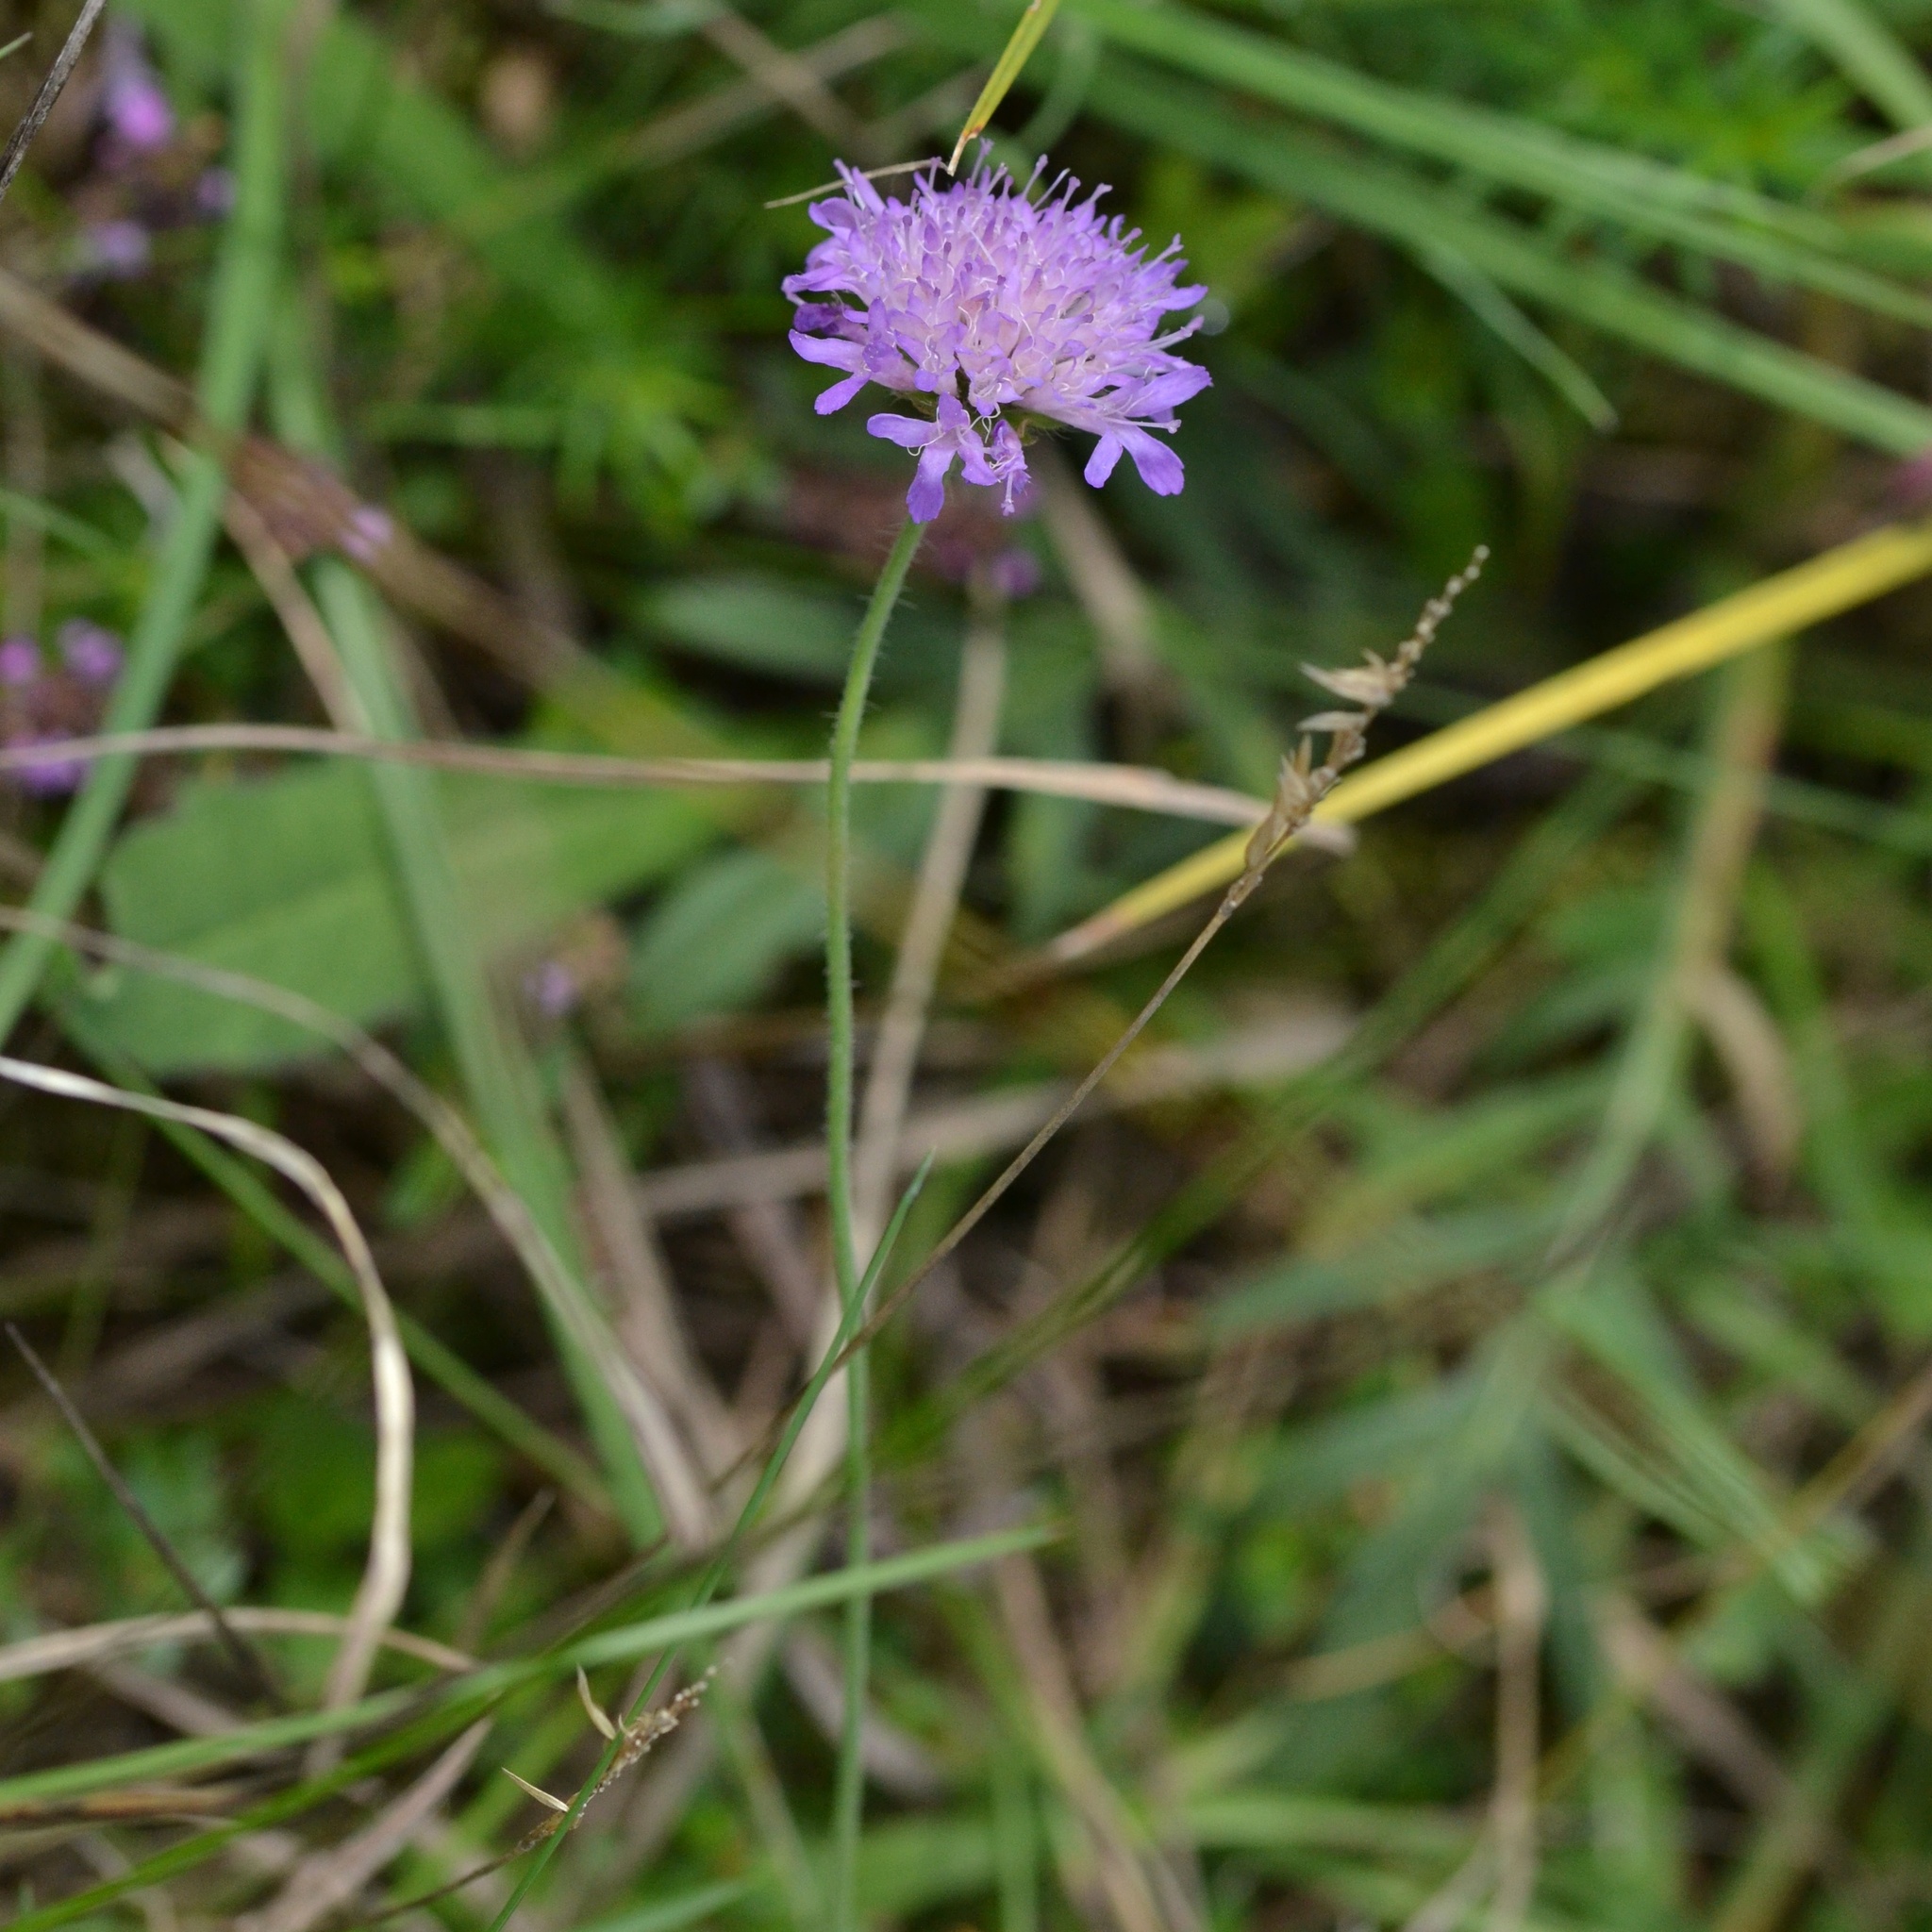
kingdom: Plantae
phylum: Tracheophyta
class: Magnoliopsida
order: Dipsacales
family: Caprifoliaceae
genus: Knautia
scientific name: Knautia arvensis
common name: Field scabiosa
